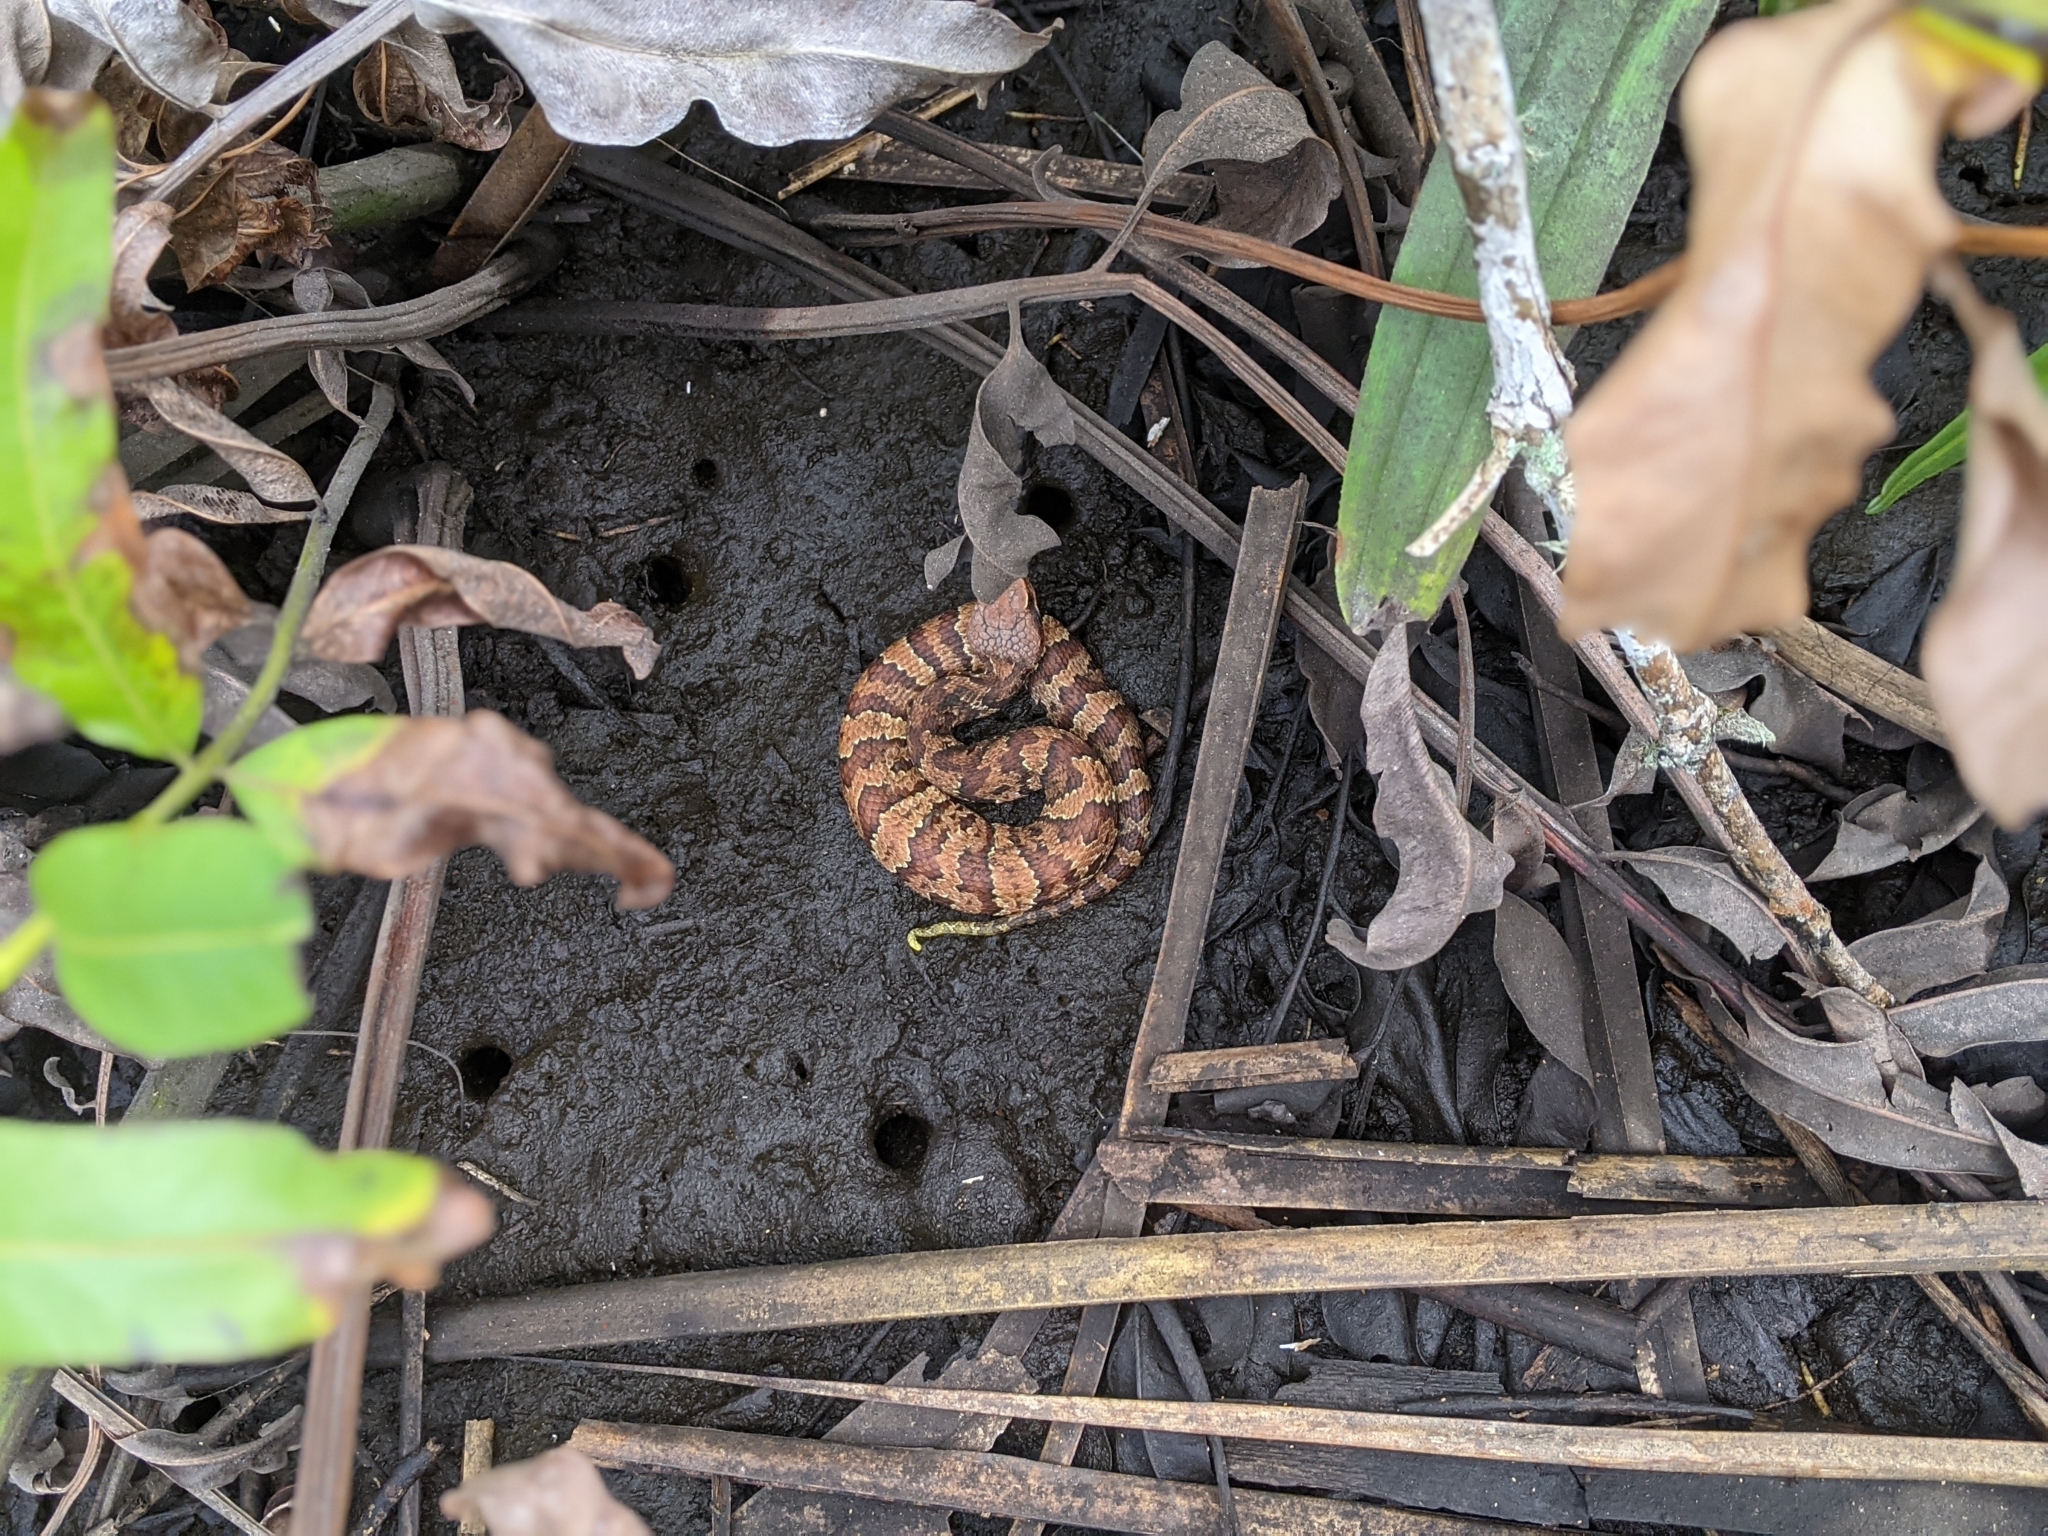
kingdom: Animalia
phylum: Chordata
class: Squamata
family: Viperidae
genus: Agkistrodon
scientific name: Agkistrodon conanti
